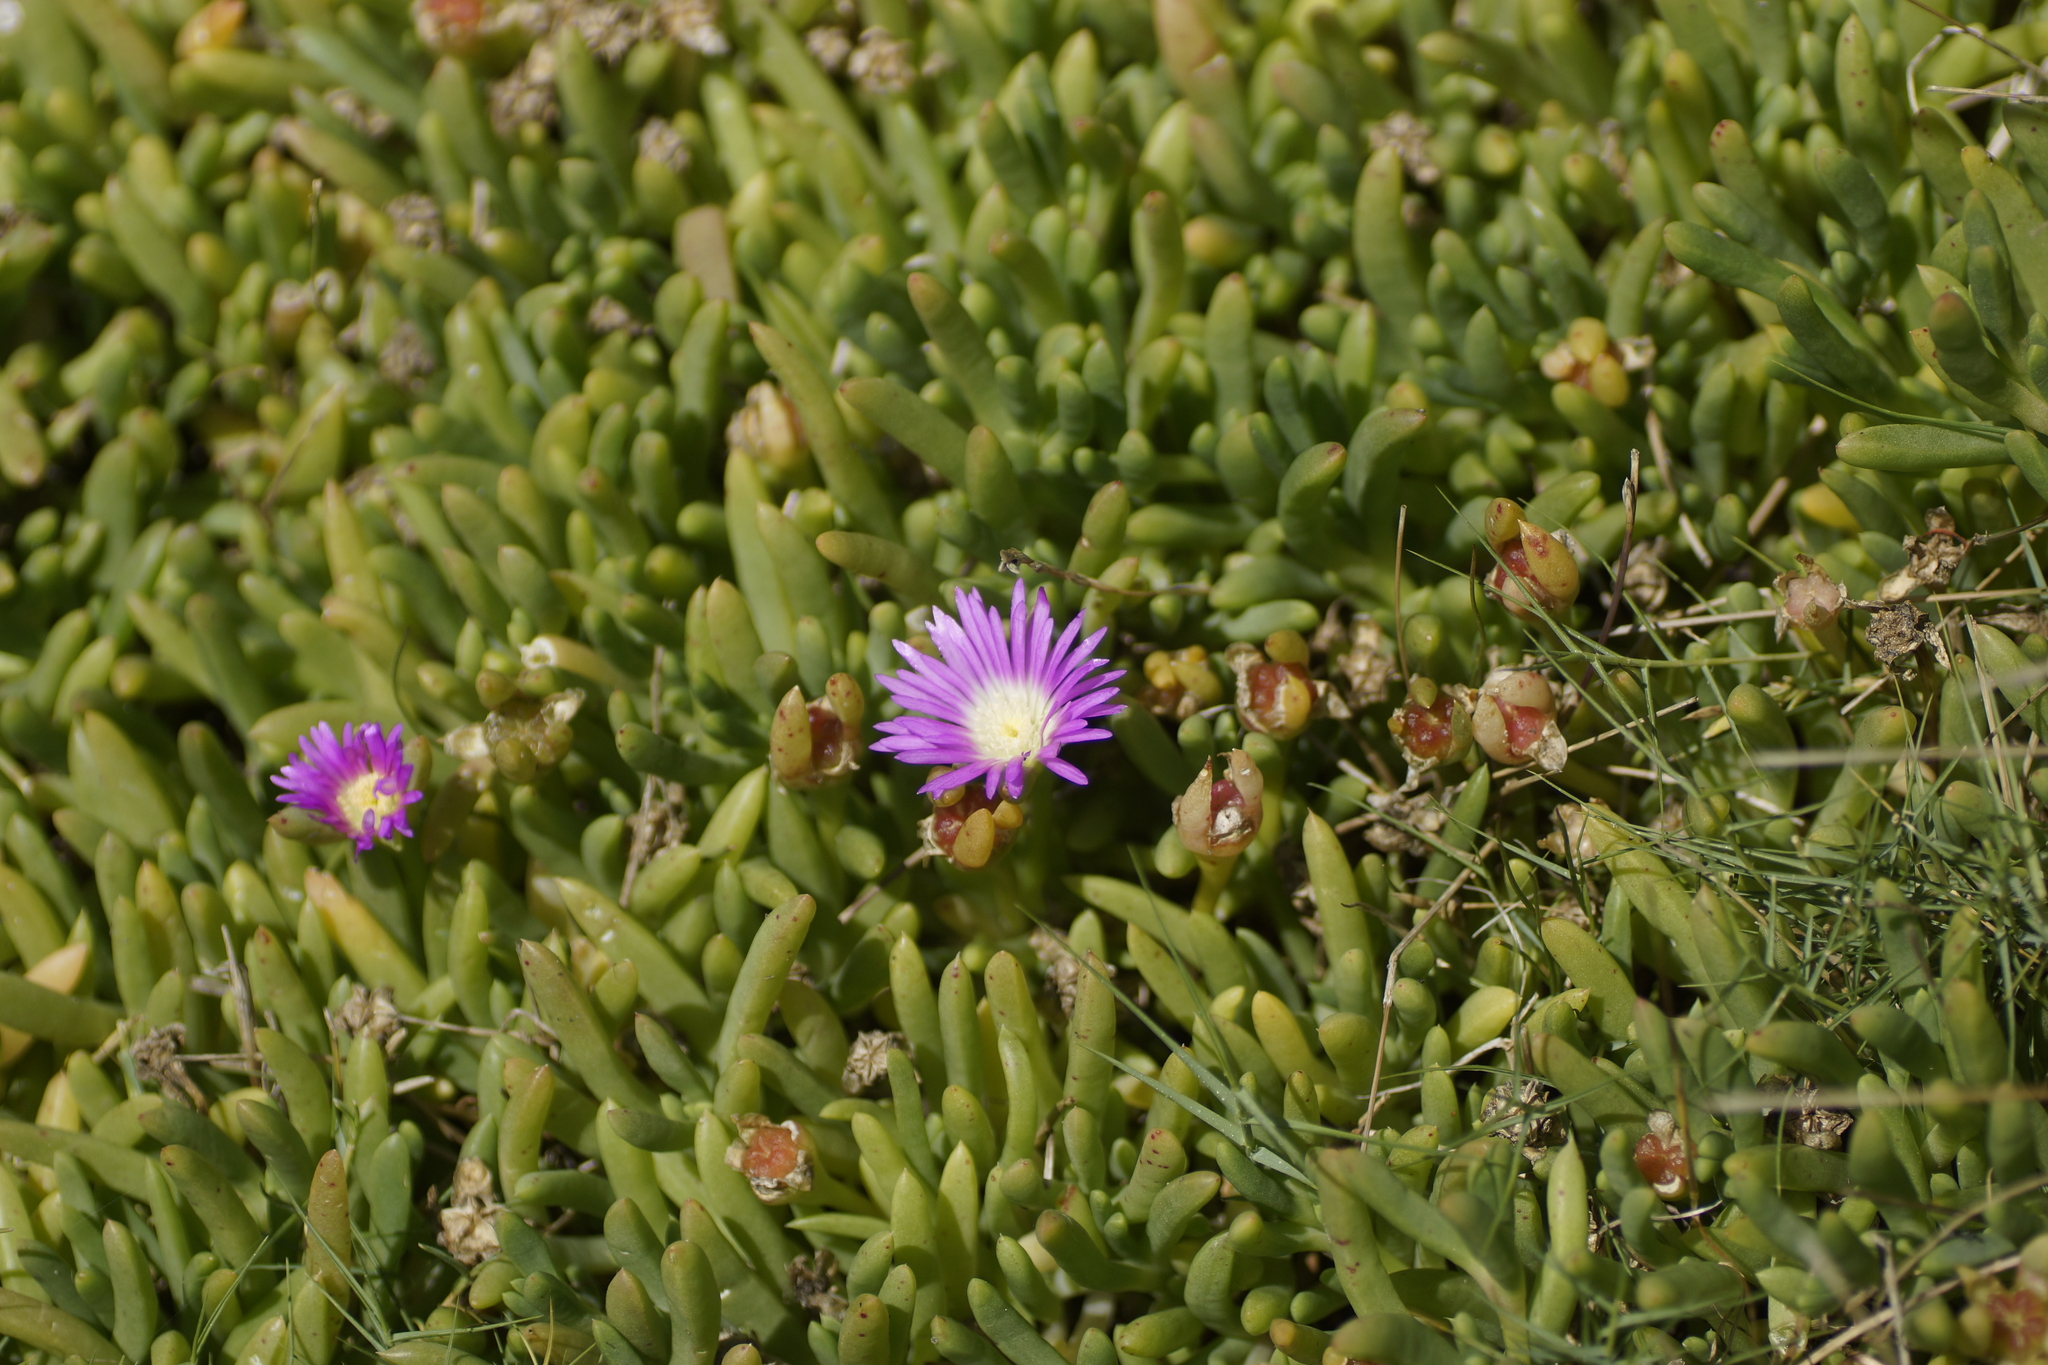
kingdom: Plantae
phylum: Tracheophyta
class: Magnoliopsida
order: Caryophyllales
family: Aizoaceae
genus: Disphyma
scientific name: Disphyma clavellatum
